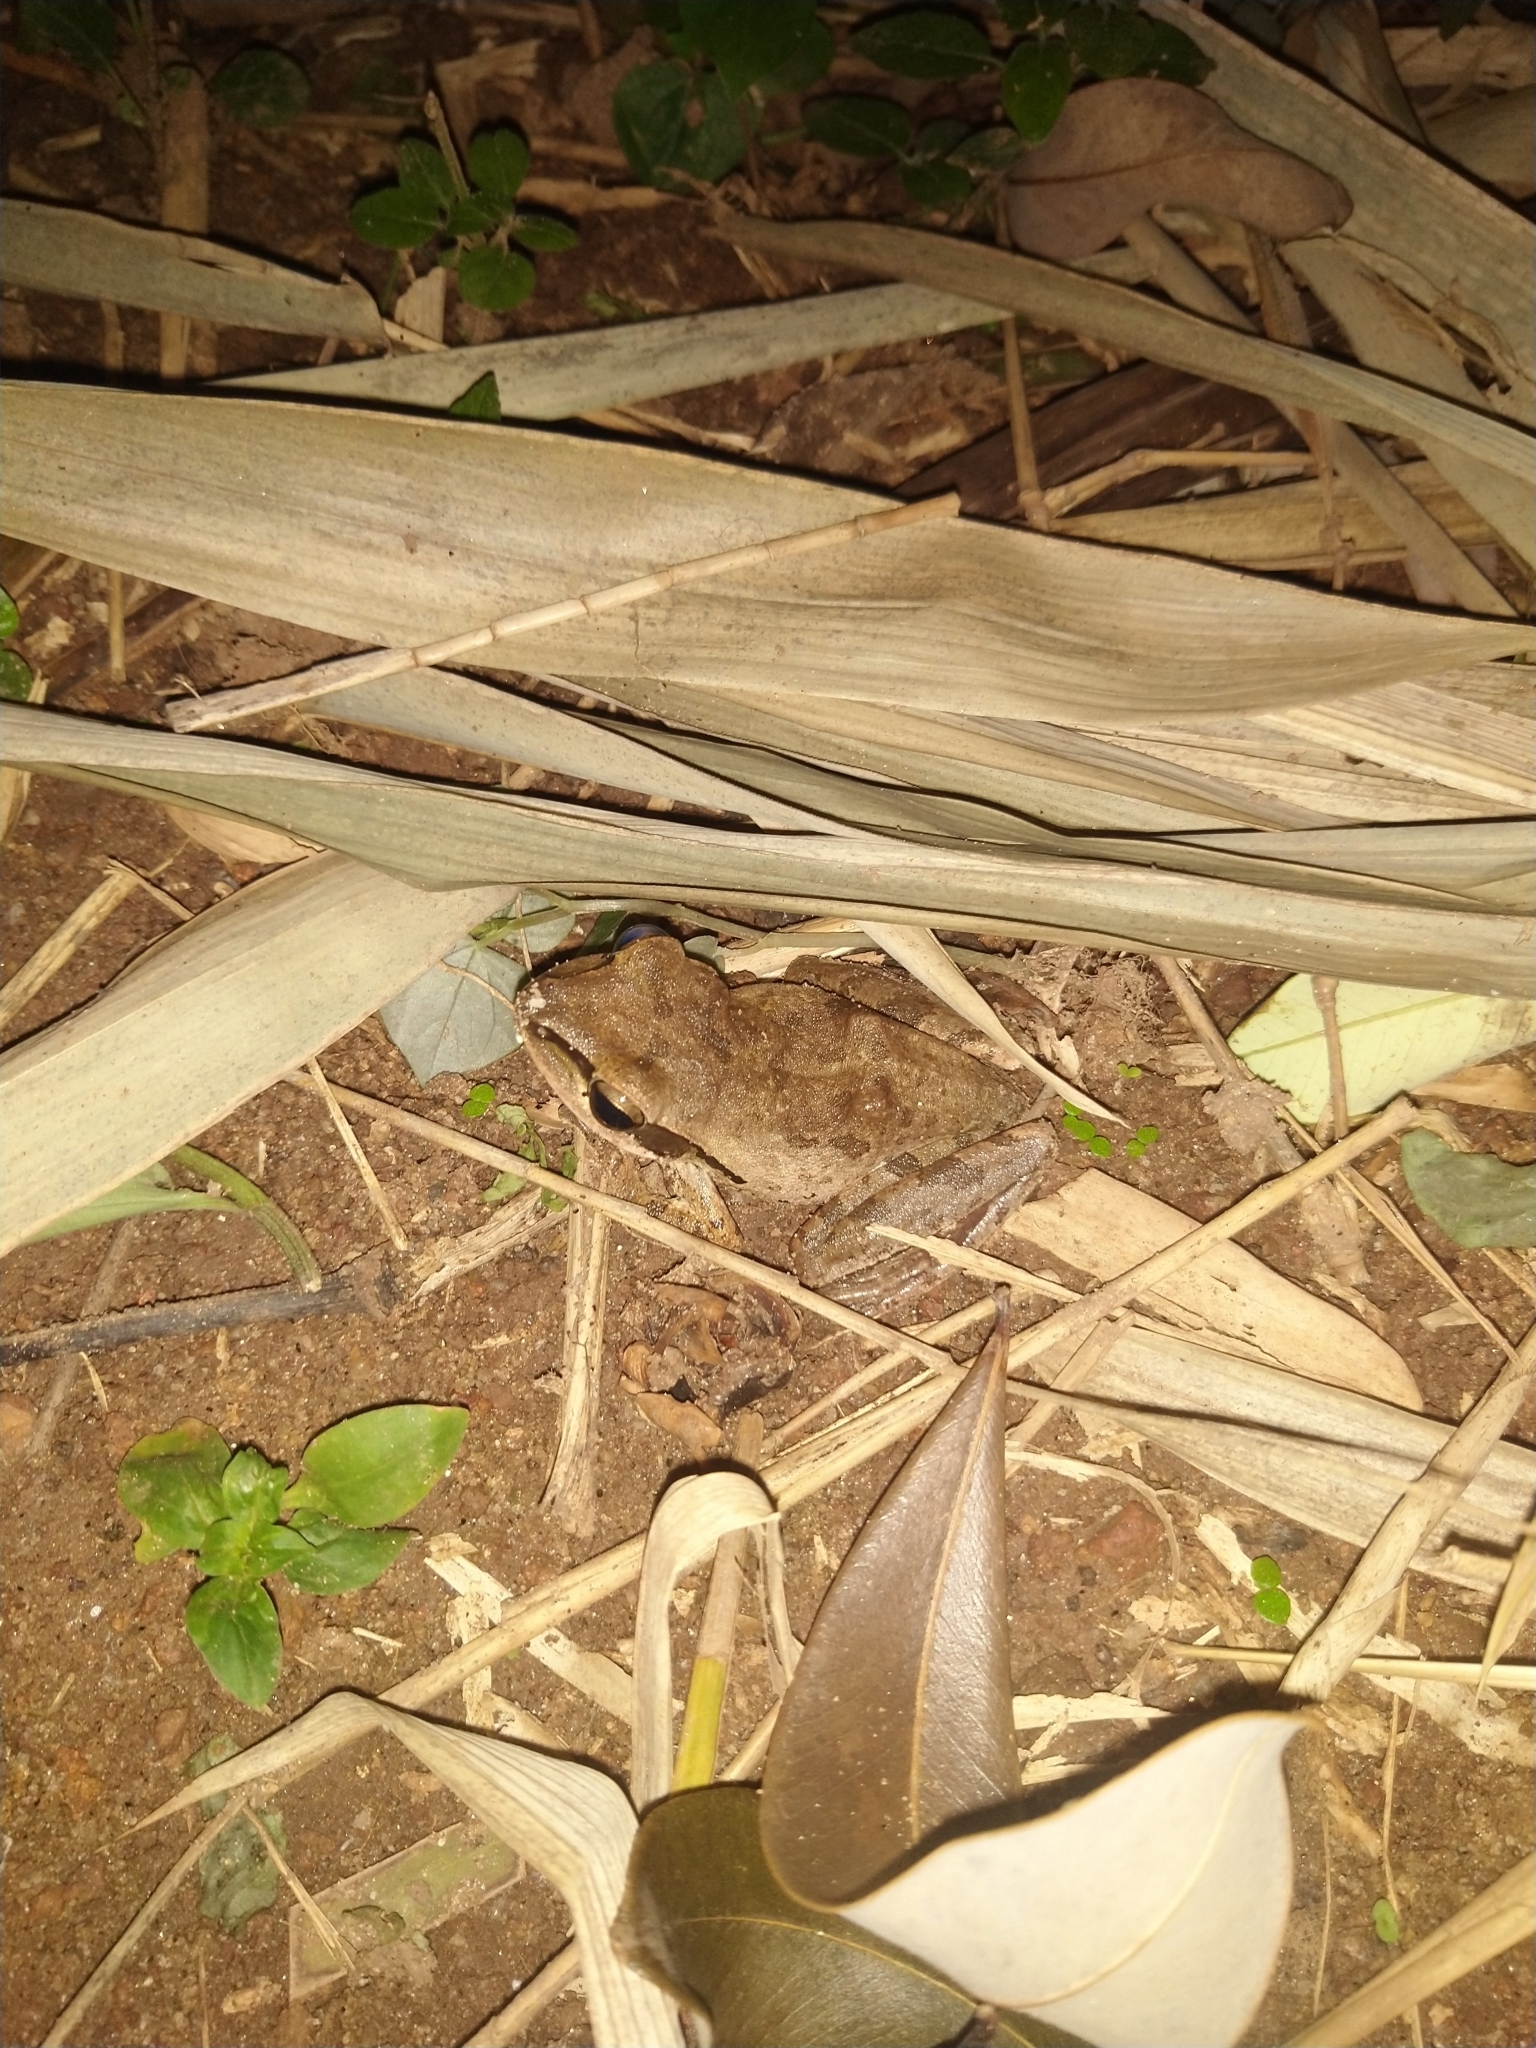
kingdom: Animalia
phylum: Chordata
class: Amphibia
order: Anura
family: Rhacophoridae
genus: Polypedates
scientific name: Polypedates maculatus
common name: Himalayan tree frog
